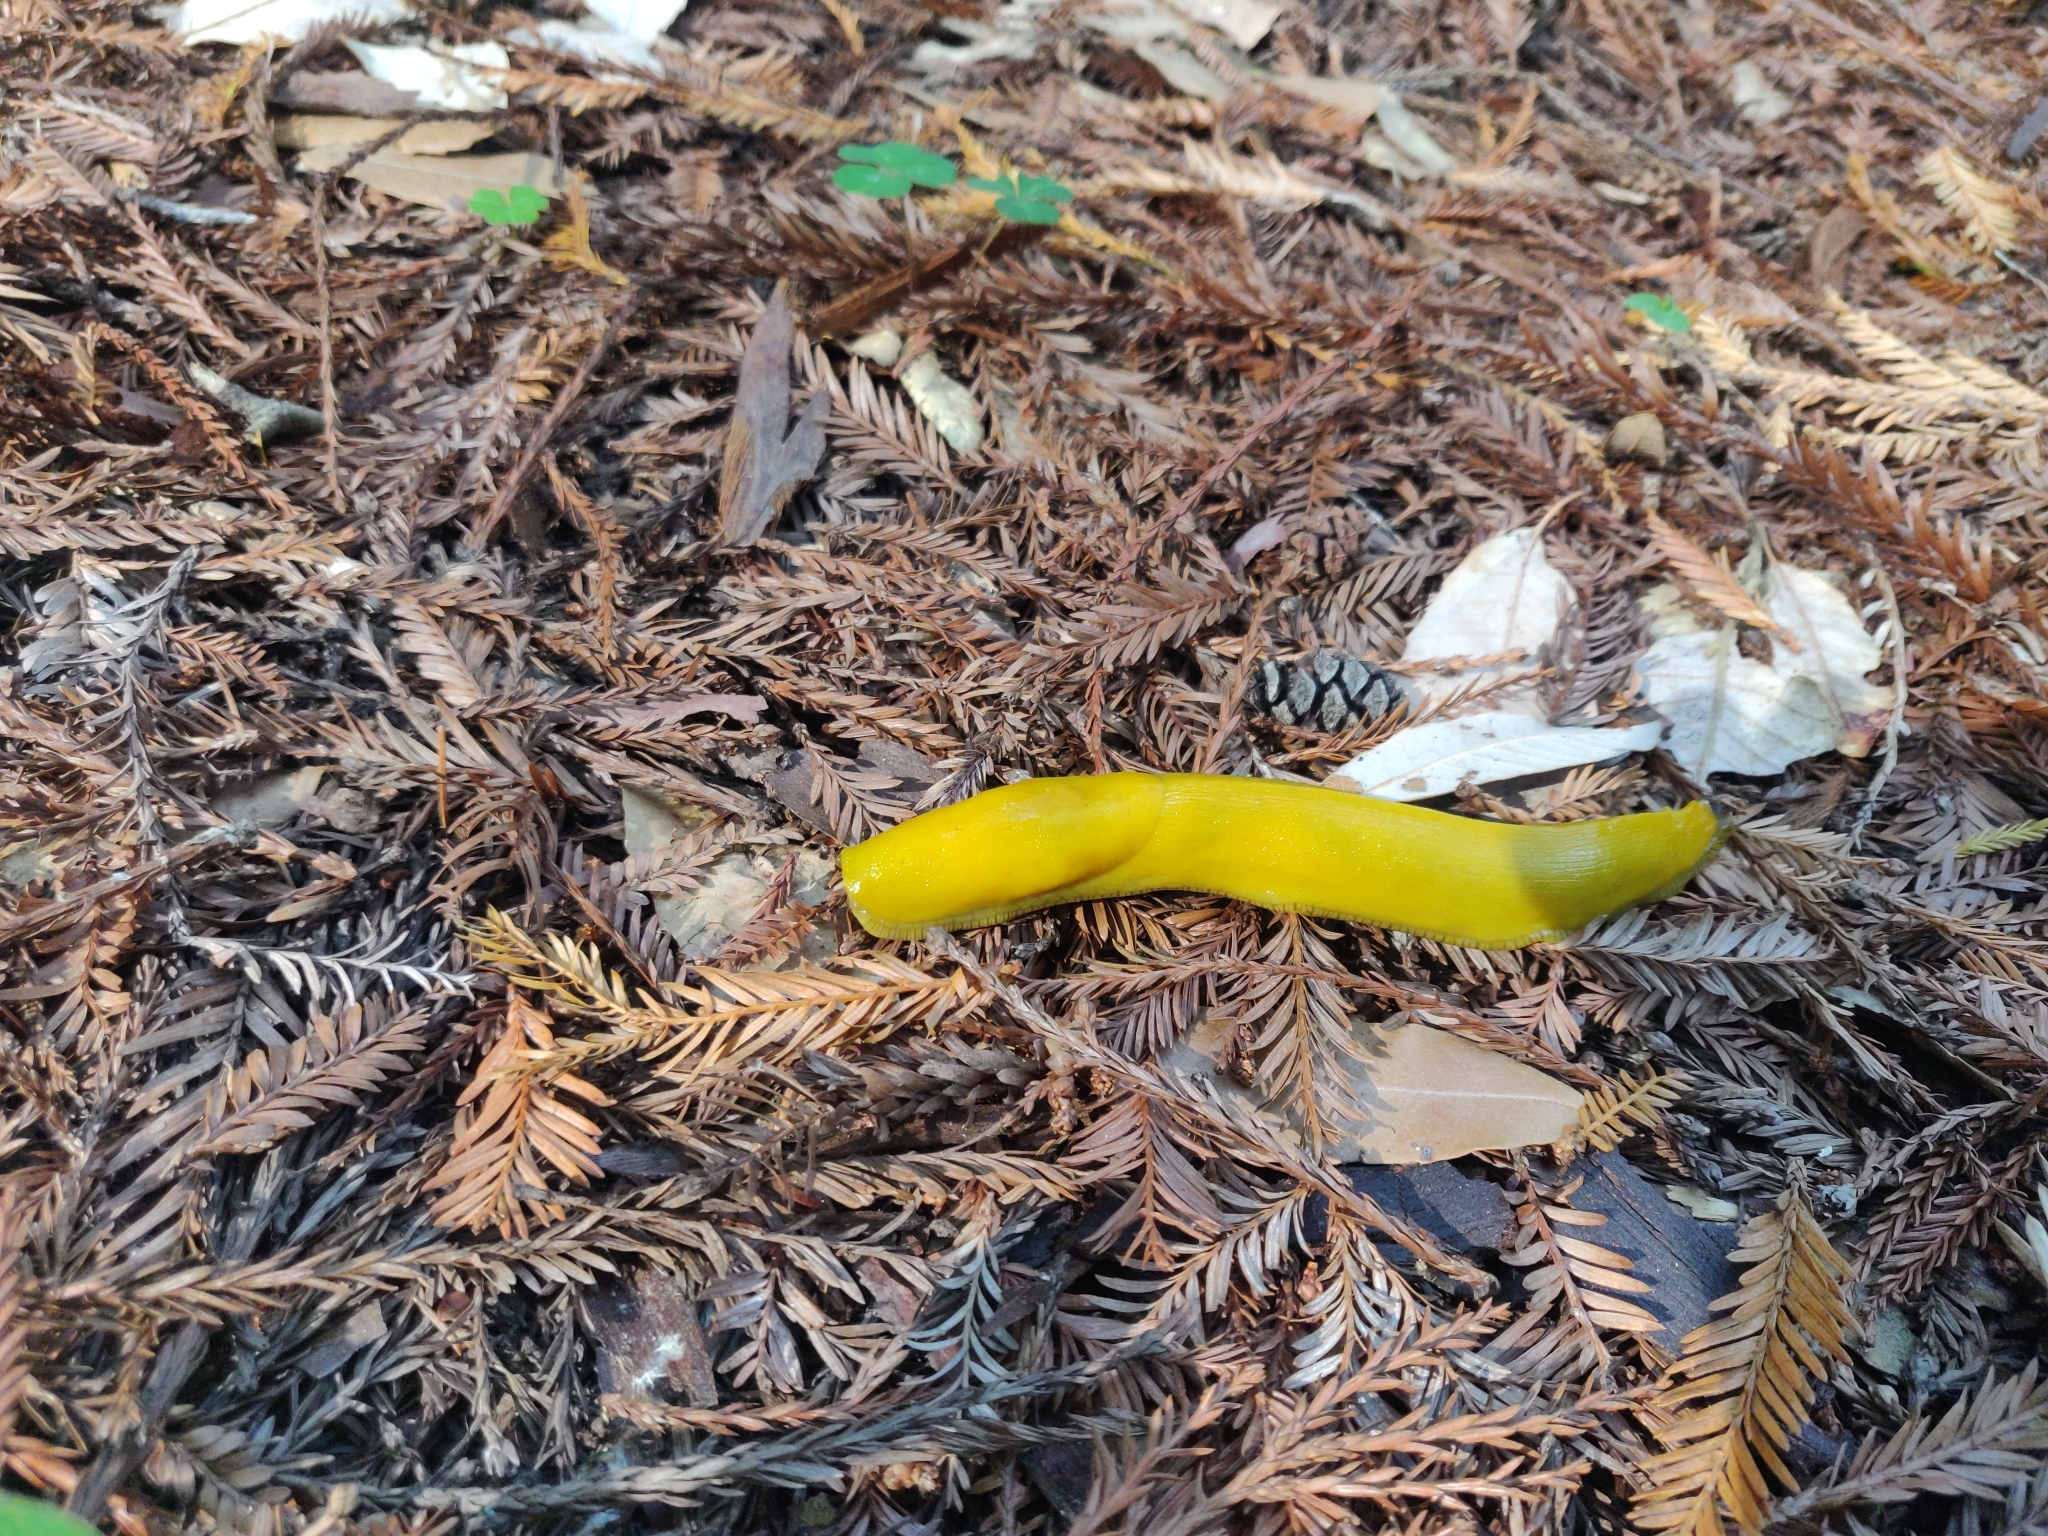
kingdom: Animalia
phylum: Mollusca
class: Gastropoda
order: Stylommatophora
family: Ariolimacidae
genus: Ariolimax
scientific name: Ariolimax californicus
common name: California banana slug
